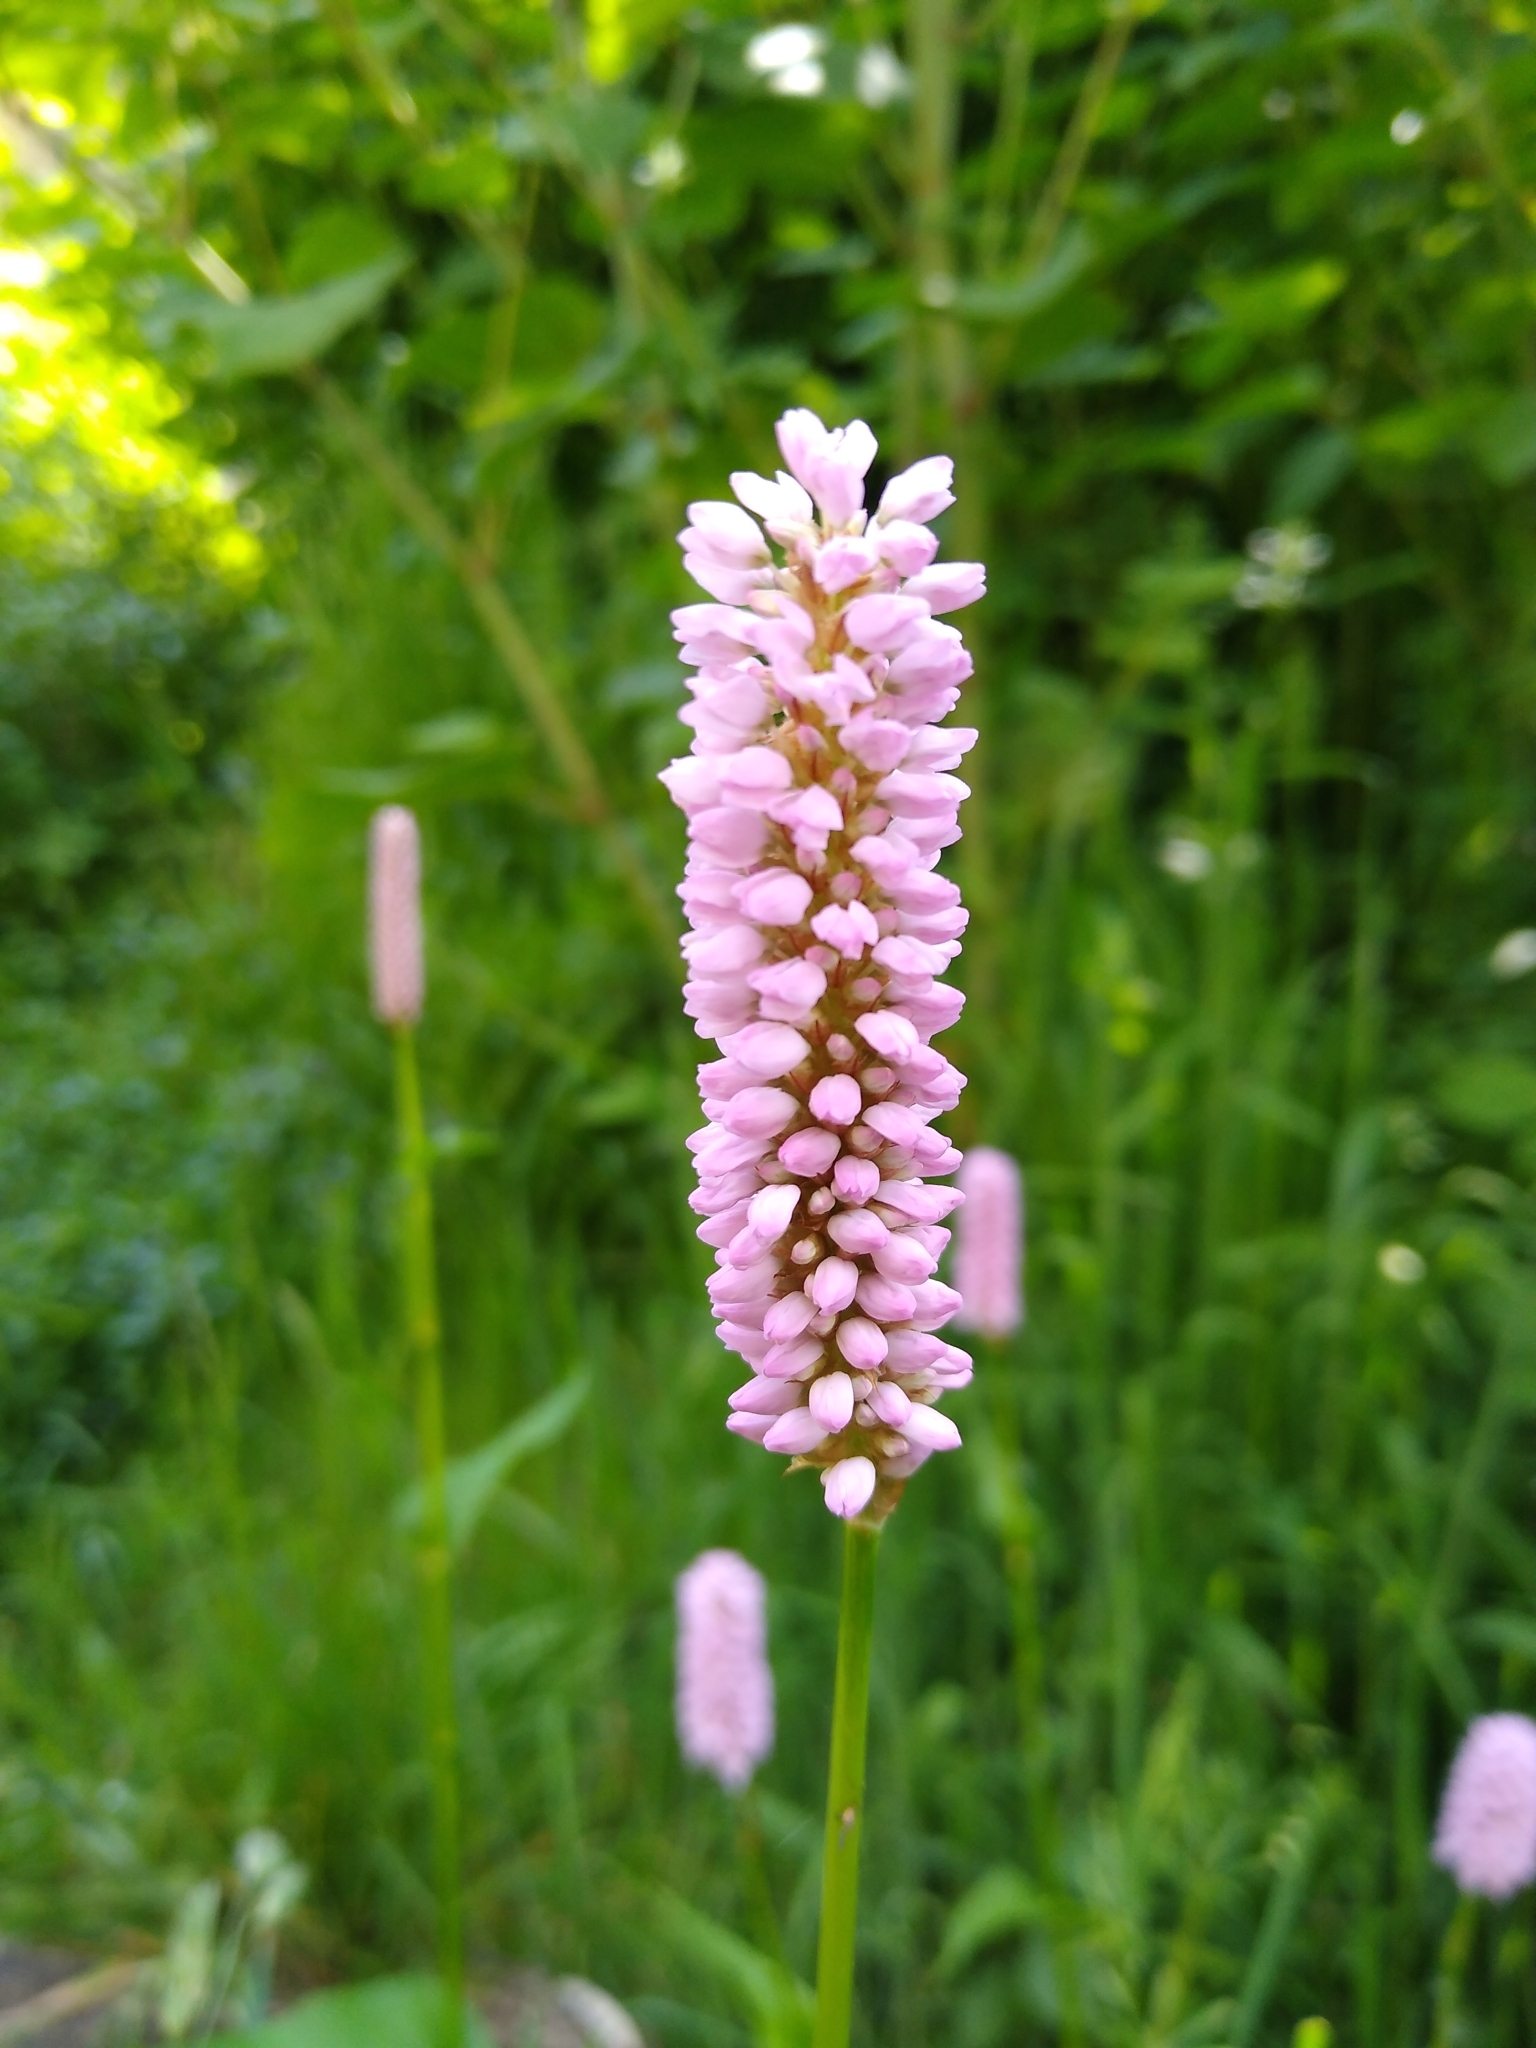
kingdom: Plantae
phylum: Tracheophyta
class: Magnoliopsida
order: Caryophyllales
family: Polygonaceae
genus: Bistorta
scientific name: Bistorta officinalis
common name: Common bistort
